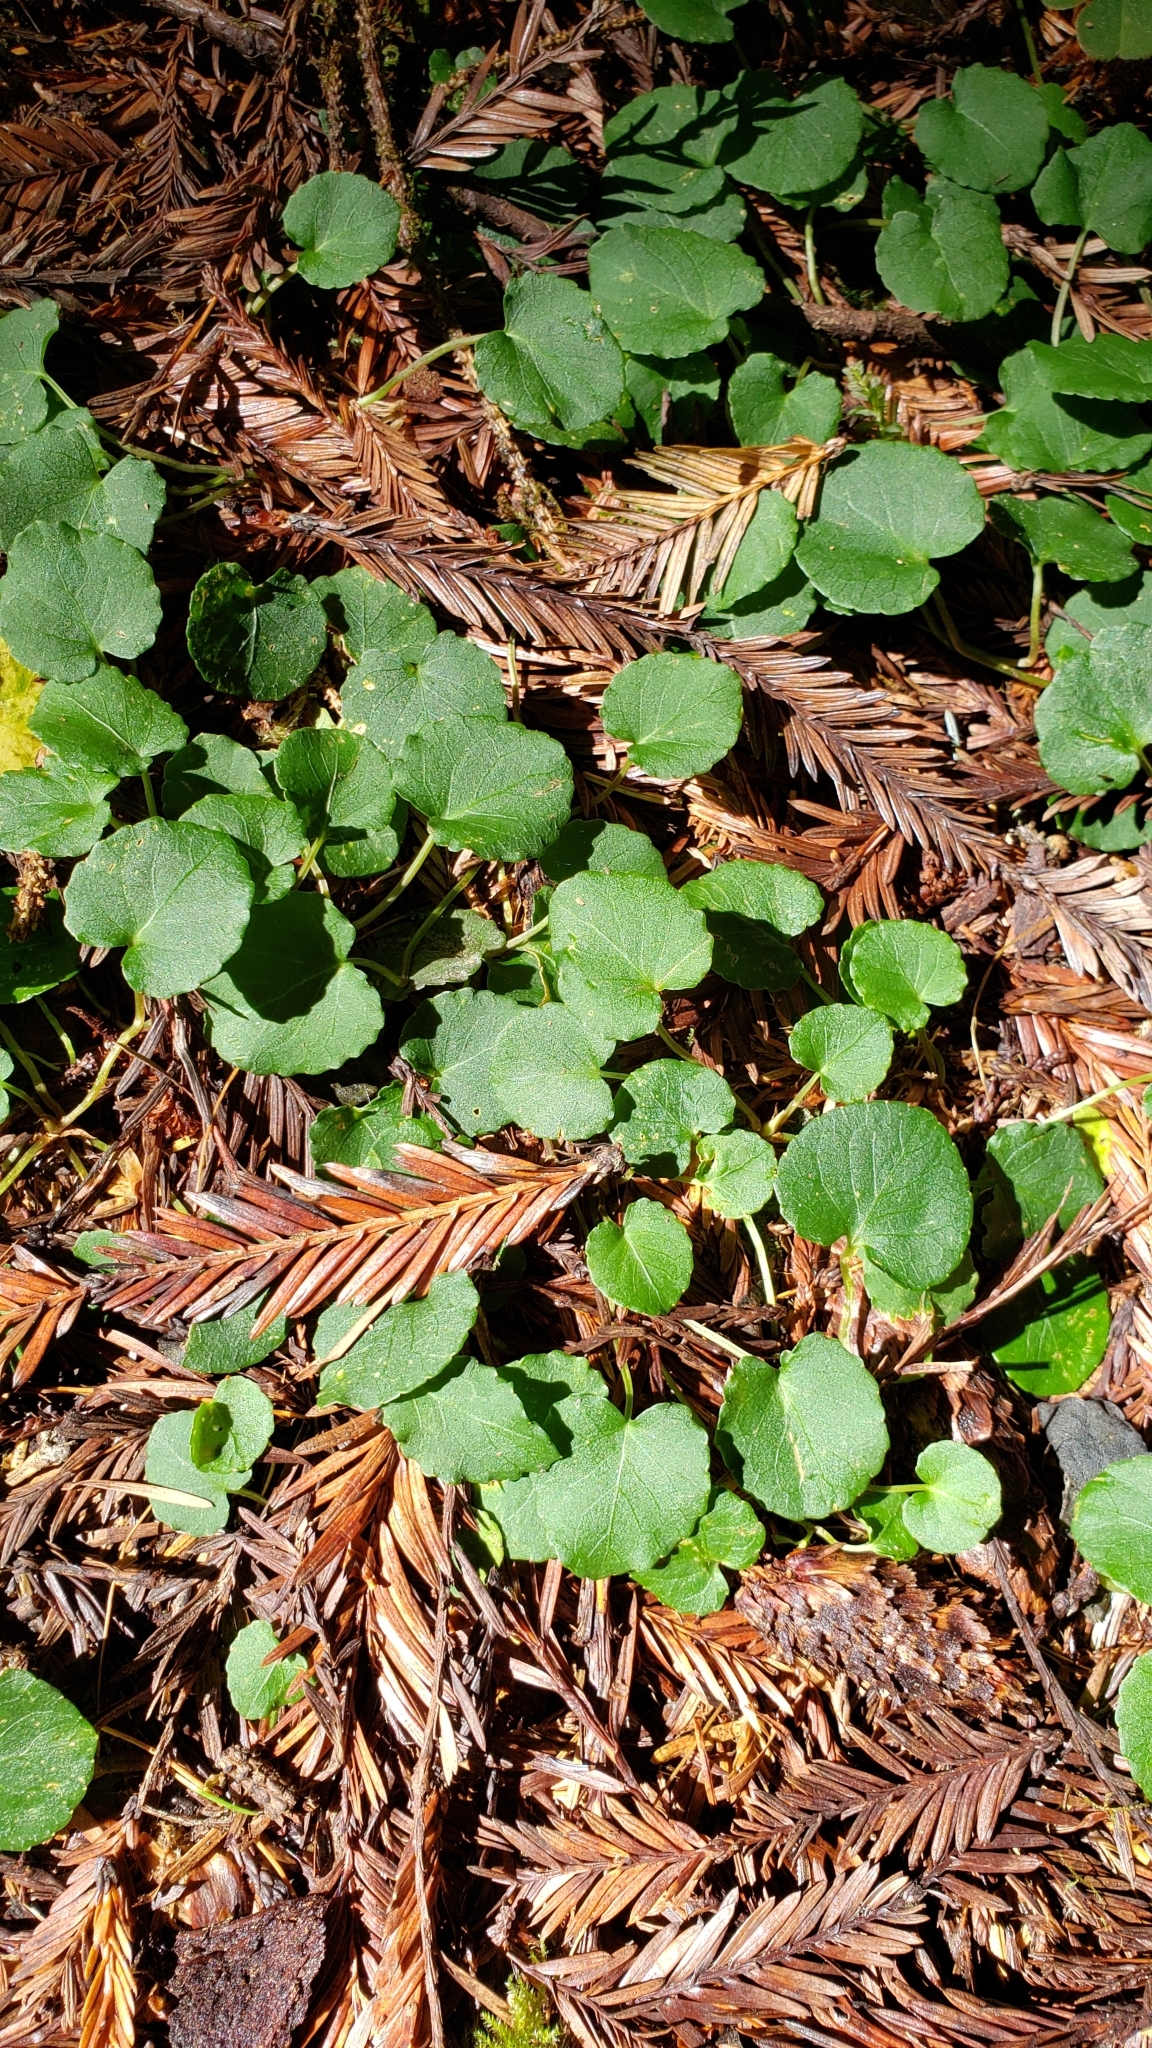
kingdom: Plantae
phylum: Tracheophyta
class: Magnoliopsida
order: Malpighiales
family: Violaceae
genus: Viola
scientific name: Viola sempervirens
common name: Evergreen violet
